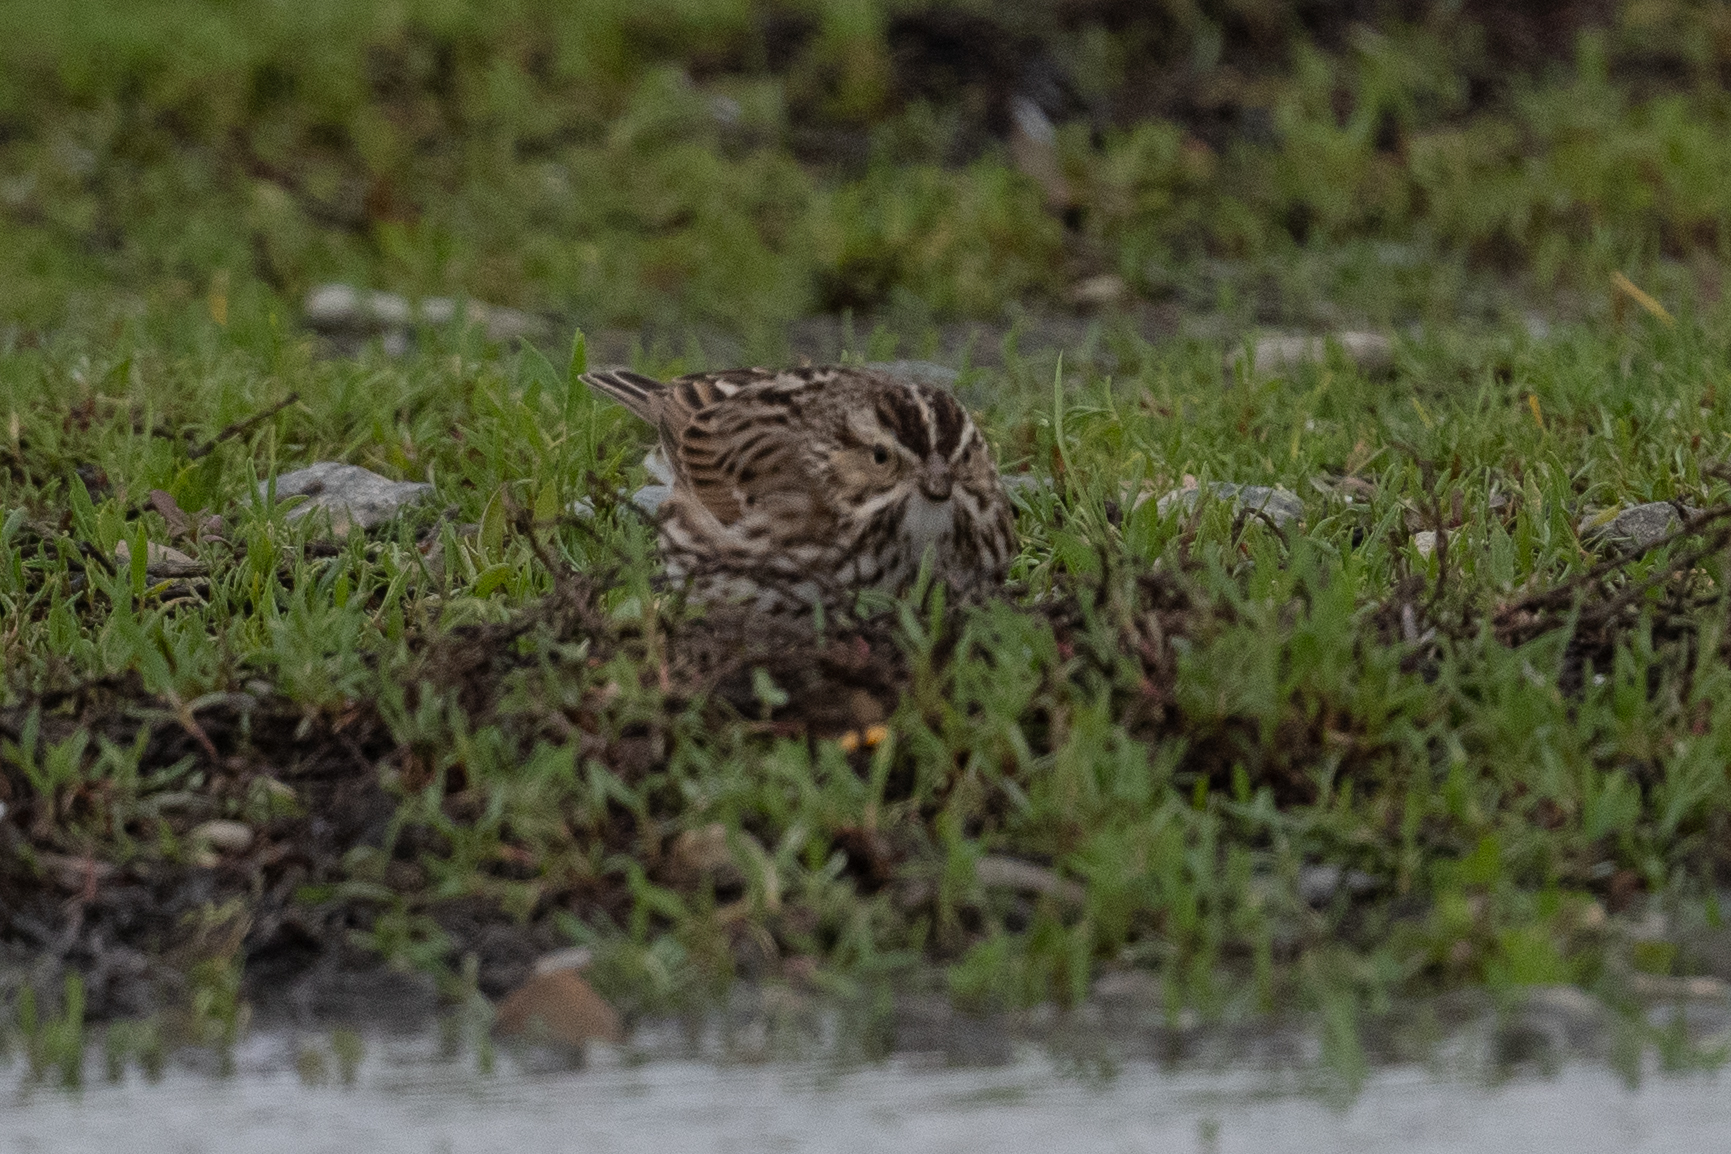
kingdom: Animalia
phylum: Chordata
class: Aves
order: Passeriformes
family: Passerellidae
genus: Passerculus
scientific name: Passerculus sandwichensis
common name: Savannah sparrow
